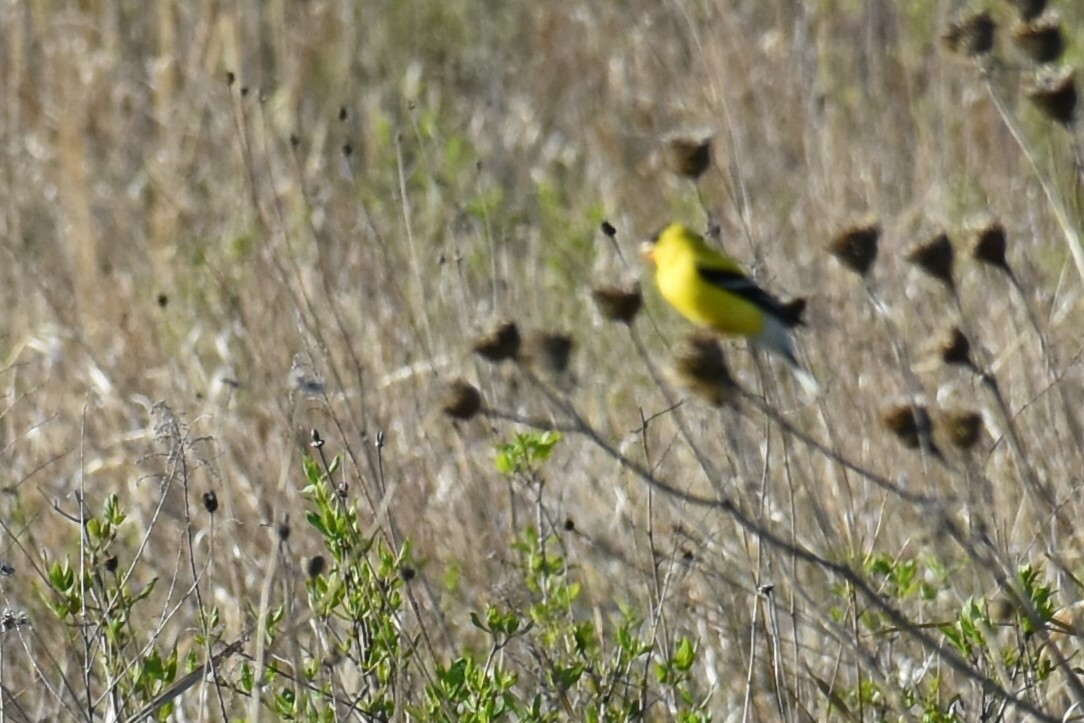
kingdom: Animalia
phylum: Chordata
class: Aves
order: Passeriformes
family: Fringillidae
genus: Spinus
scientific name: Spinus tristis
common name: American goldfinch
